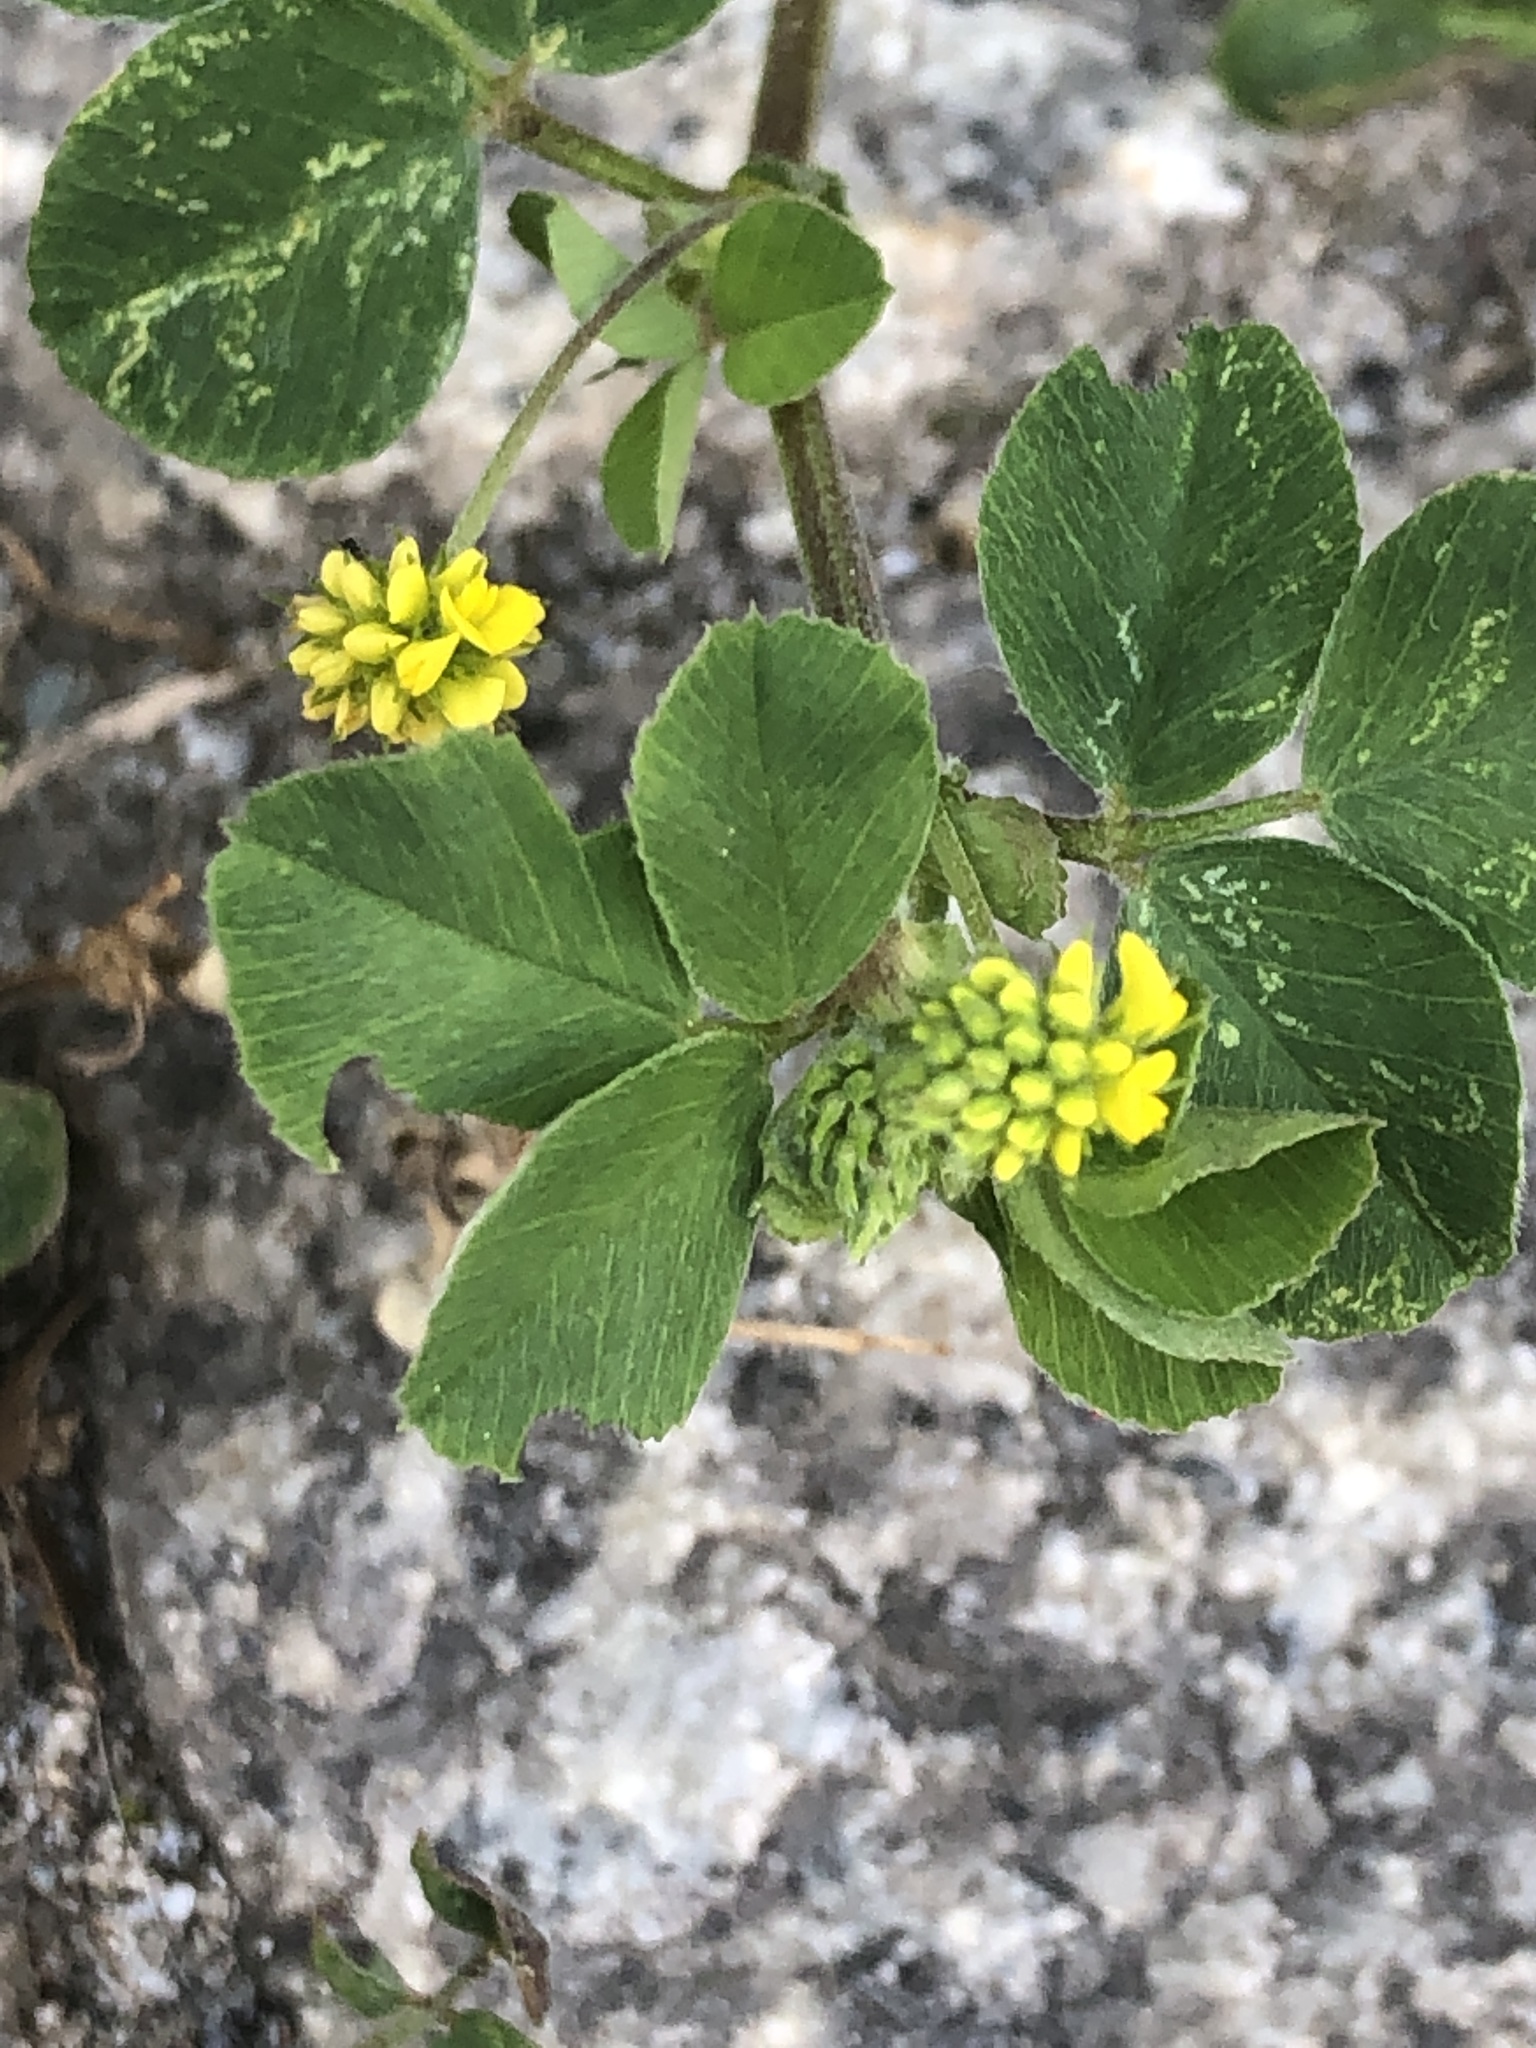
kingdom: Plantae
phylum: Tracheophyta
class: Magnoliopsida
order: Fabales
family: Fabaceae
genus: Medicago
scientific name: Medicago lupulina
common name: Black medick
